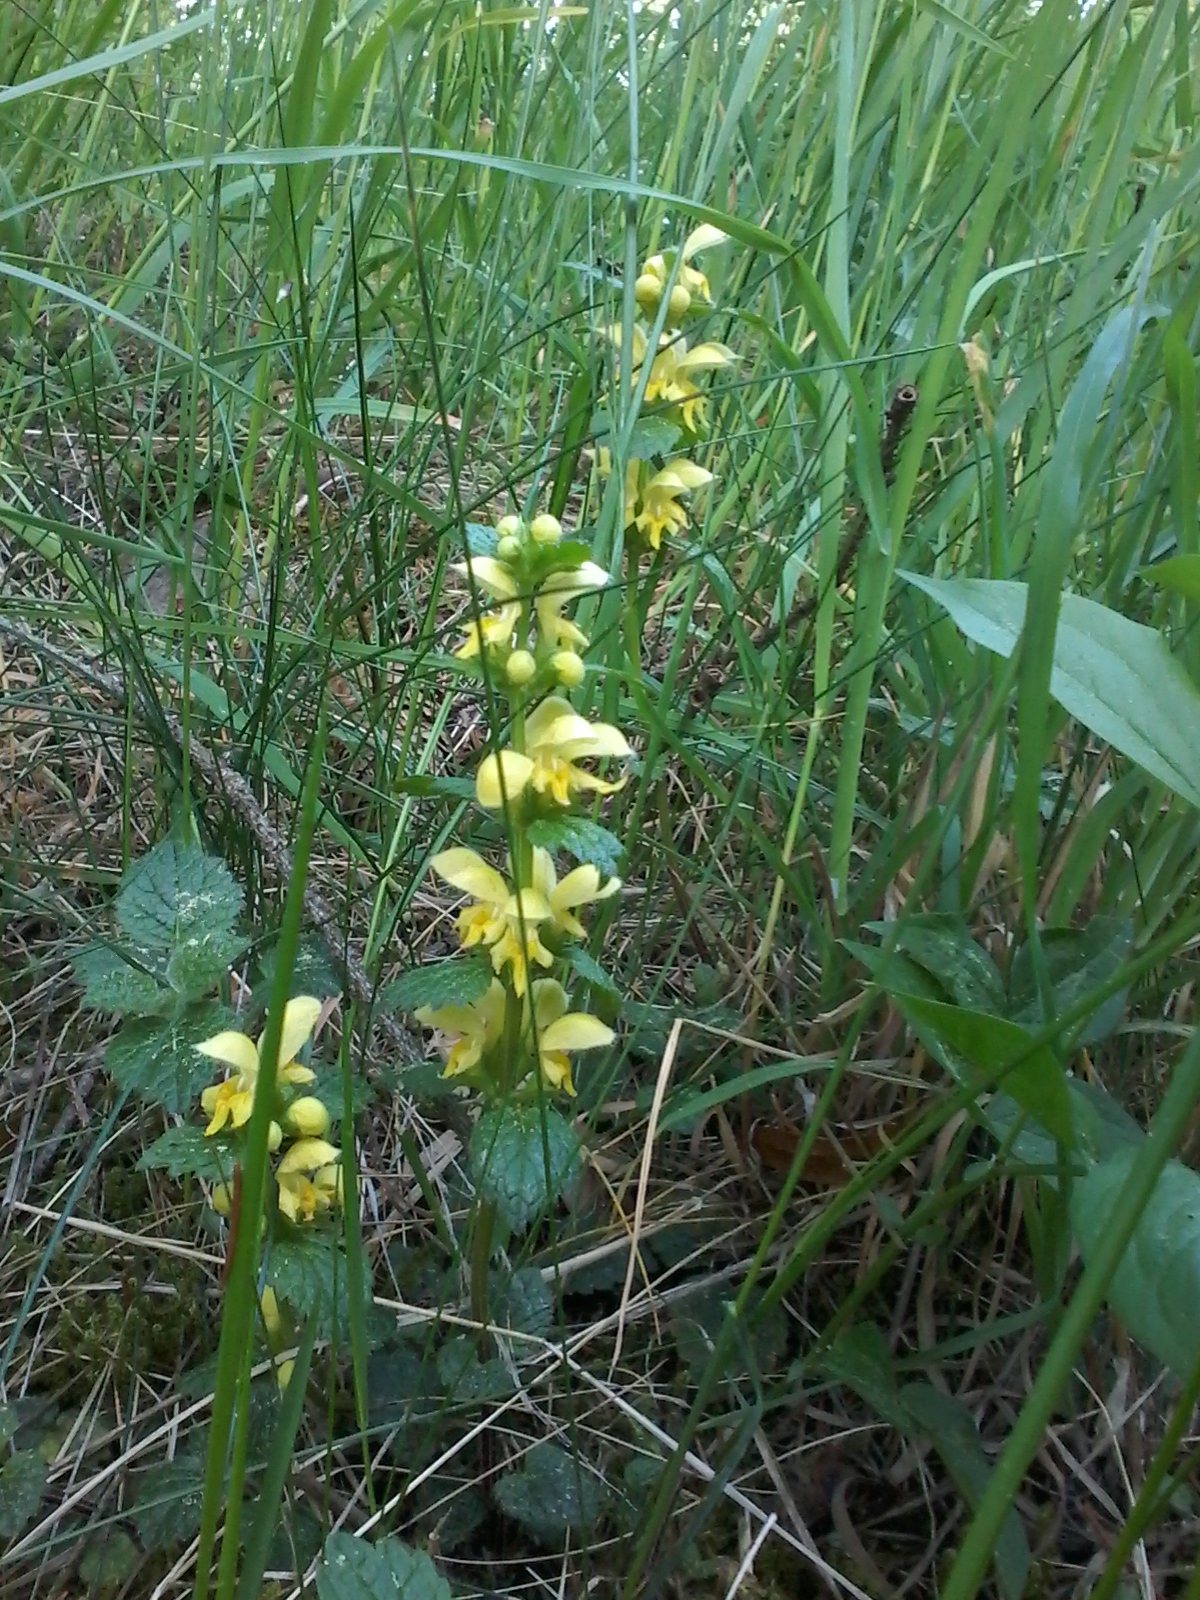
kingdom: Plantae
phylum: Tracheophyta
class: Magnoliopsida
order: Lamiales
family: Lamiaceae
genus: Lamium
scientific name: Lamium galeobdolon
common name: Yellow archangel
